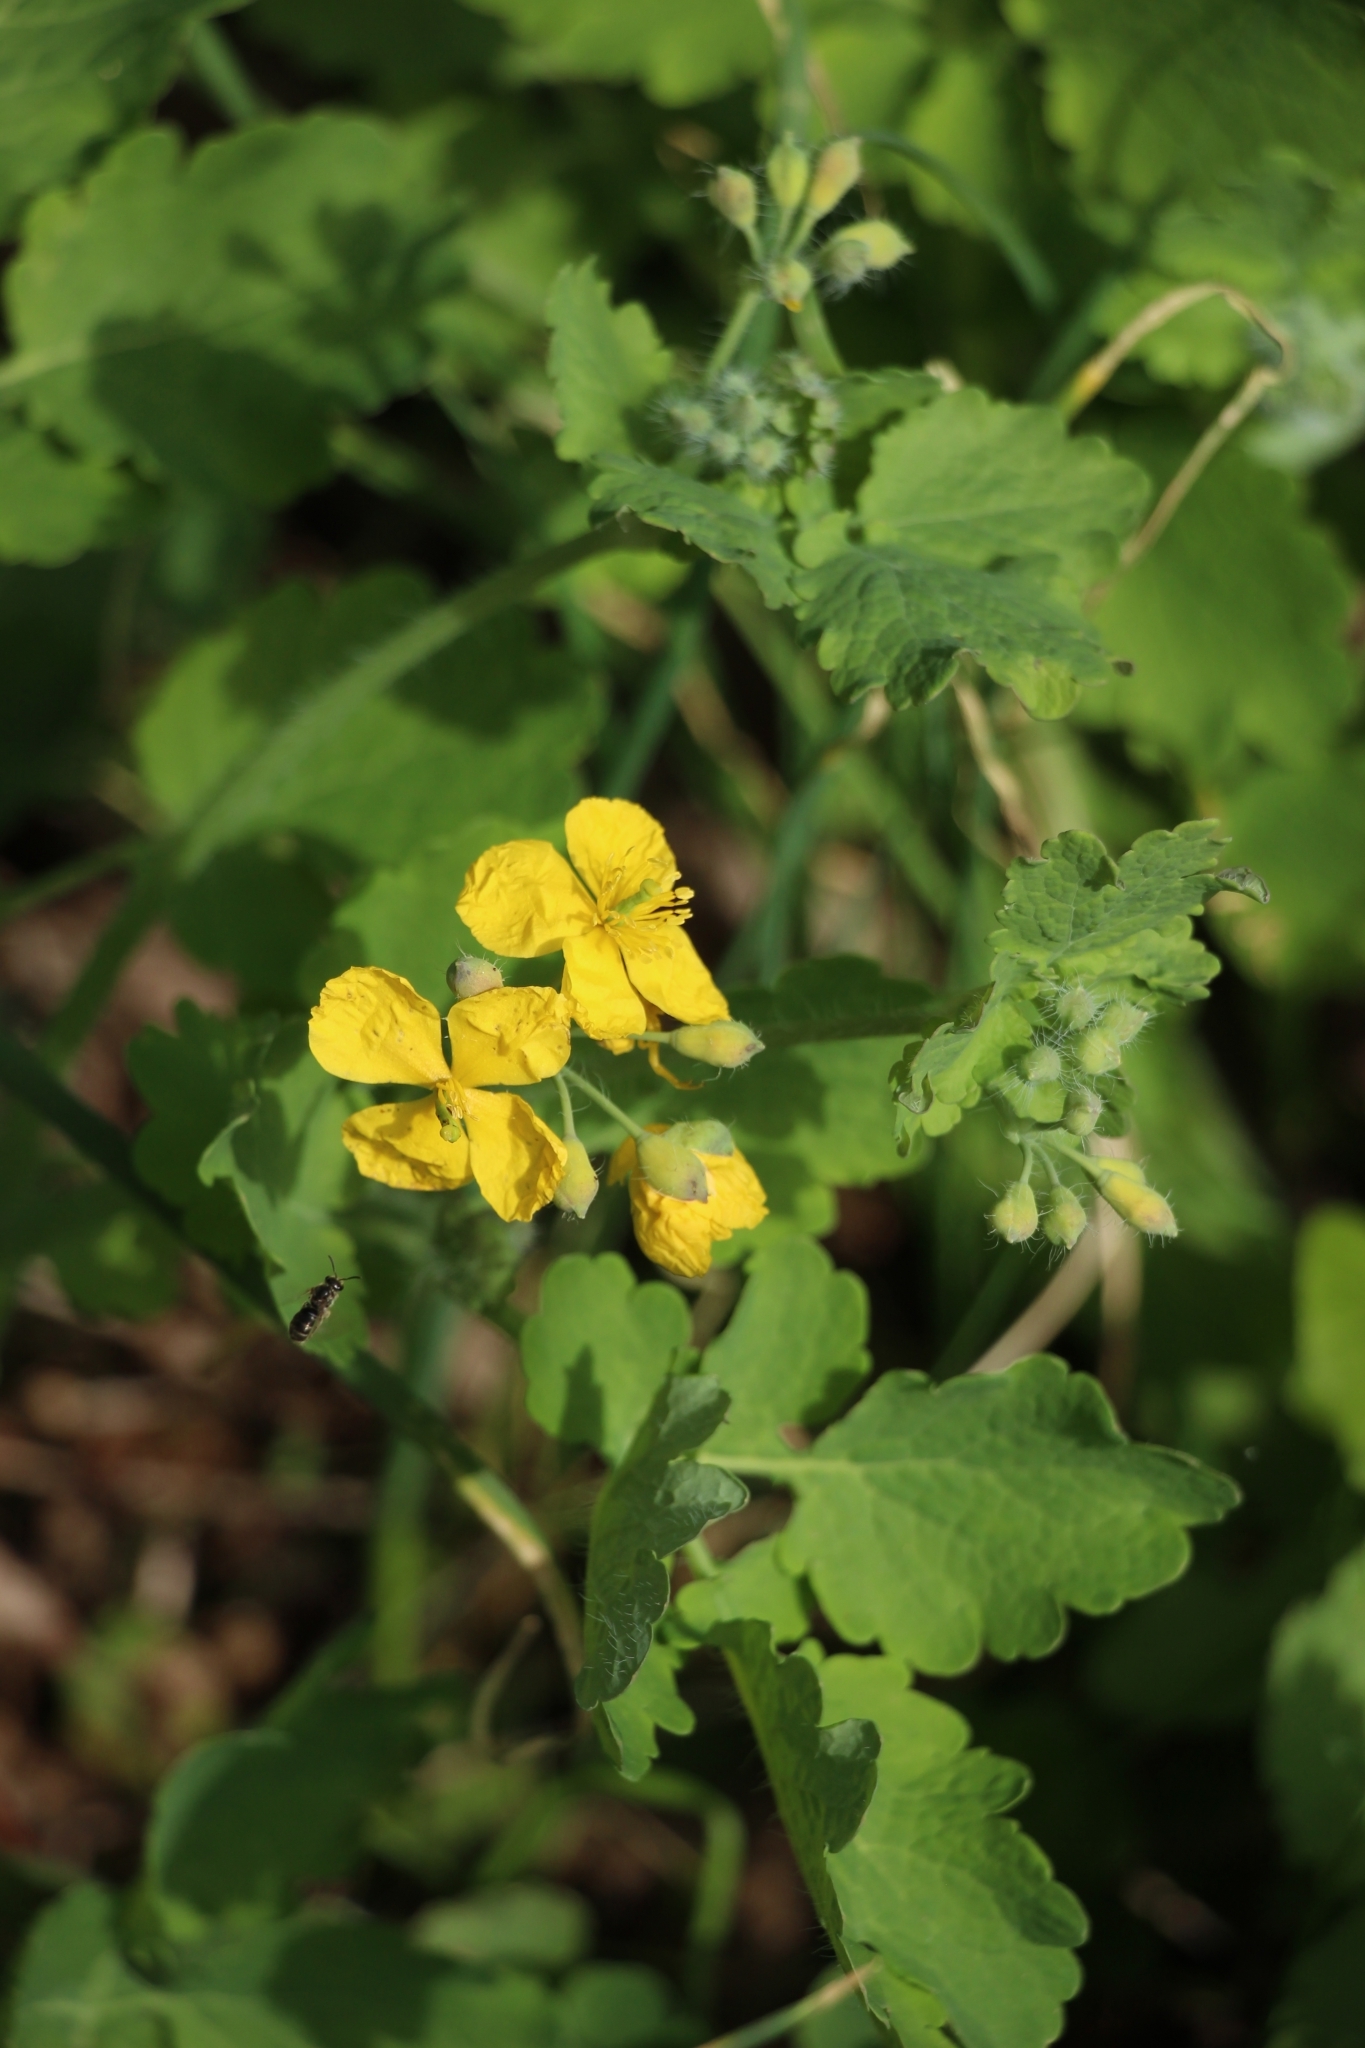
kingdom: Plantae
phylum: Tracheophyta
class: Magnoliopsida
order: Ranunculales
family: Papaveraceae
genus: Chelidonium
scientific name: Chelidonium majus
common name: Greater celandine
